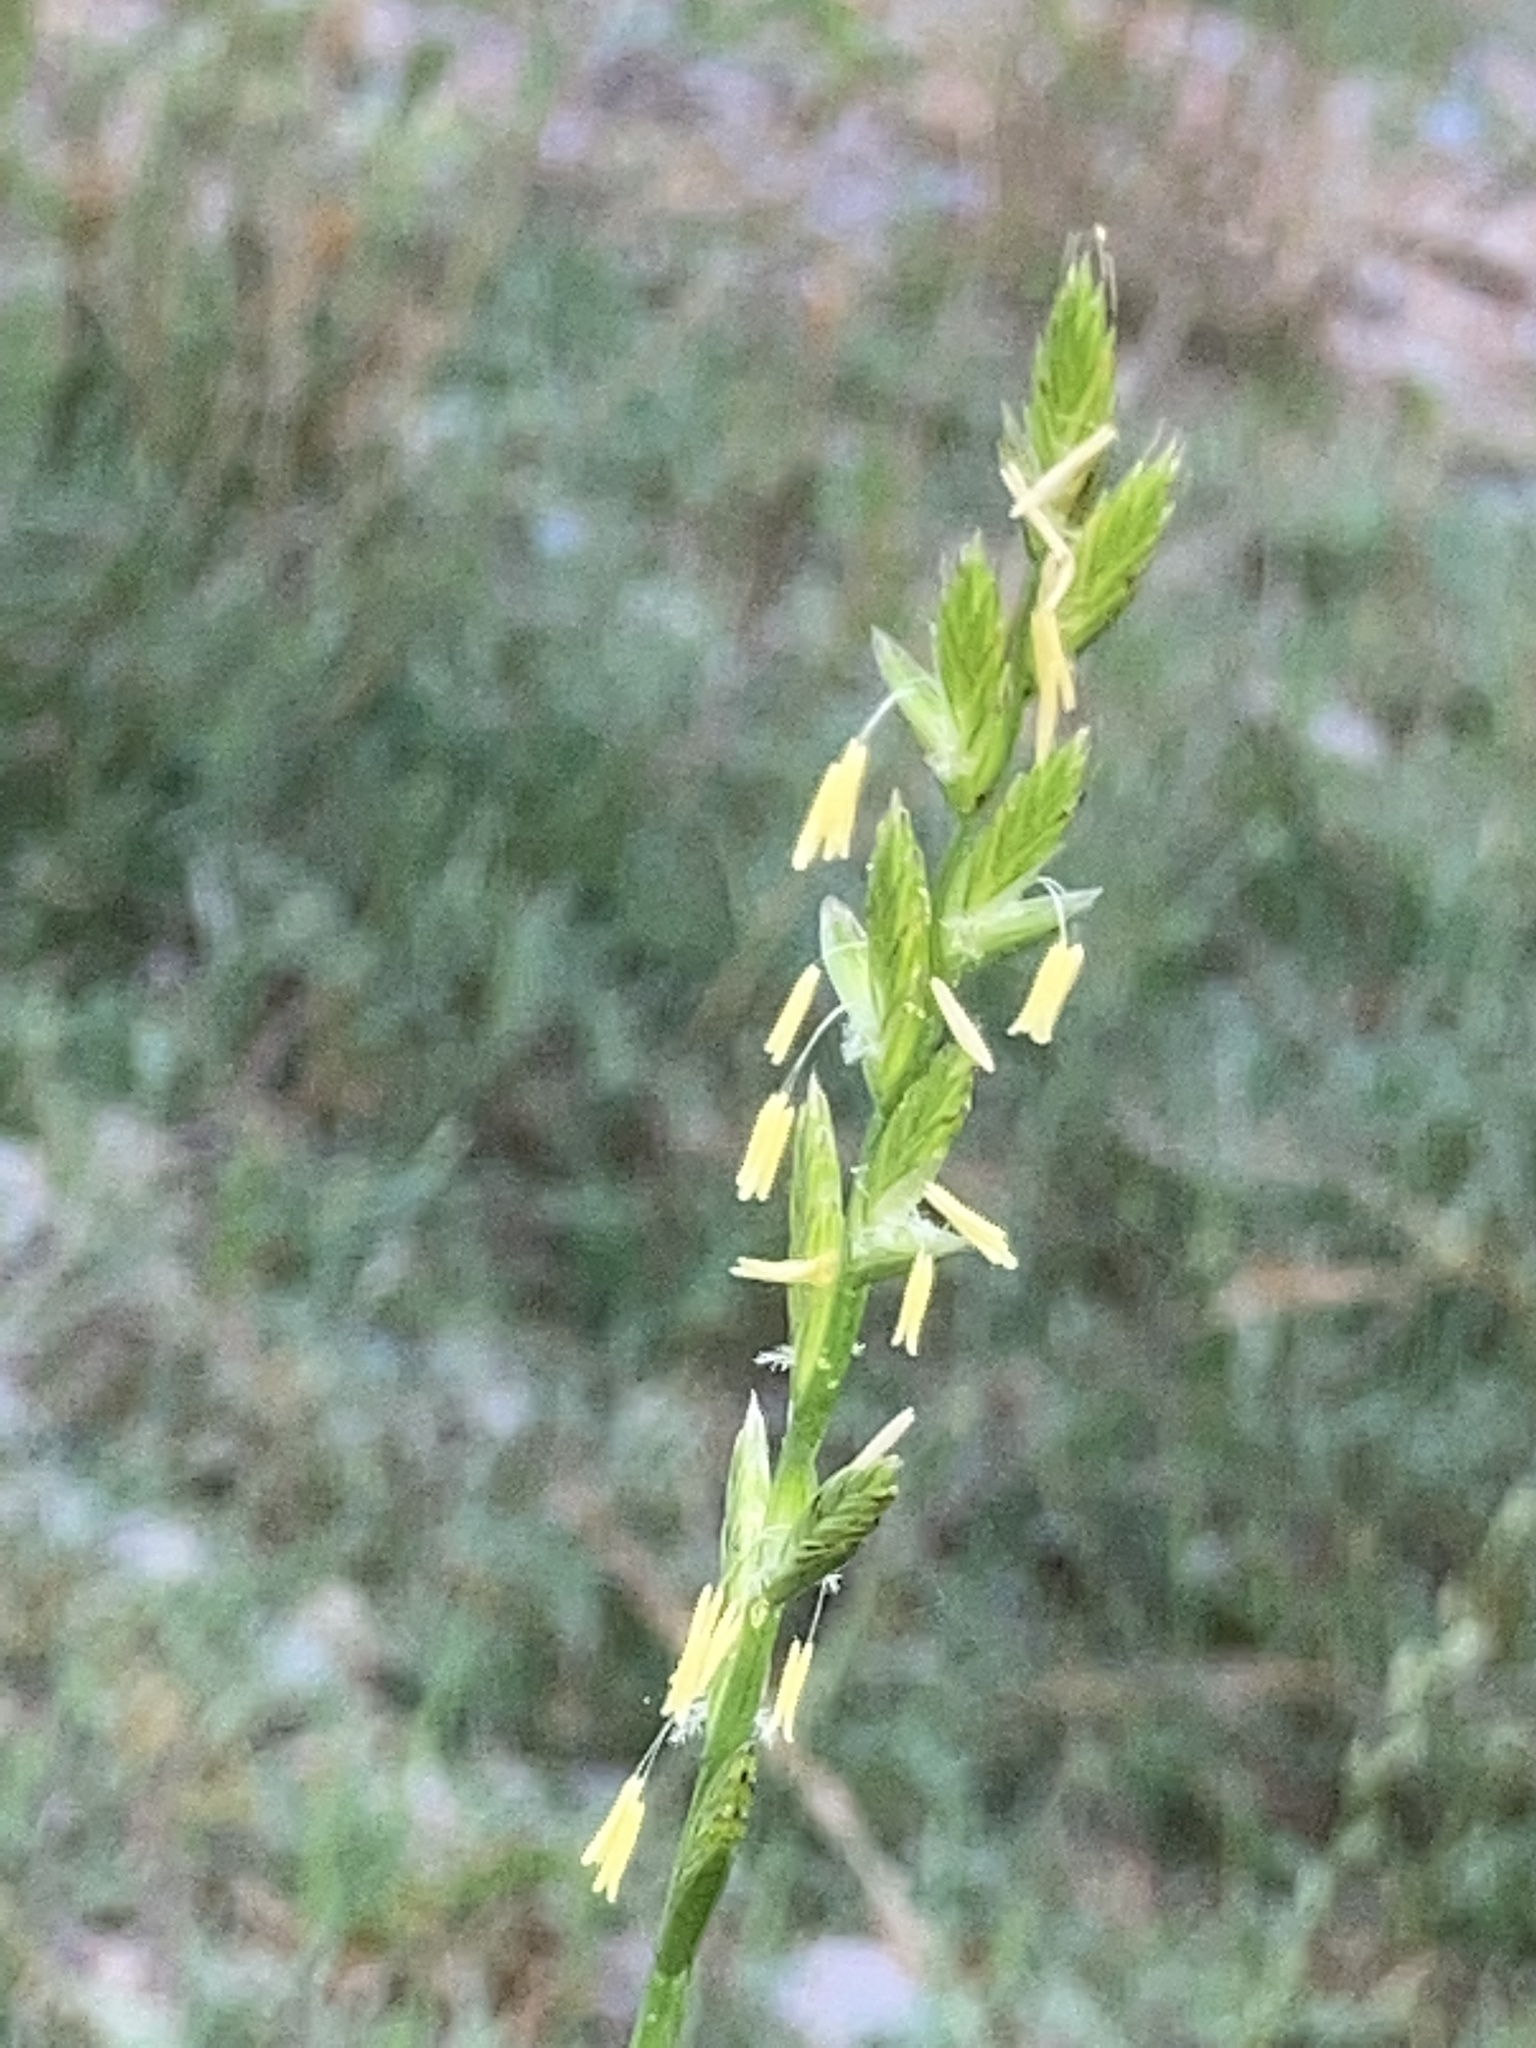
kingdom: Plantae
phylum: Tracheophyta
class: Liliopsida
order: Poales
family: Poaceae
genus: Lolium
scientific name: Lolium multiflorum
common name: Annual ryegrass
